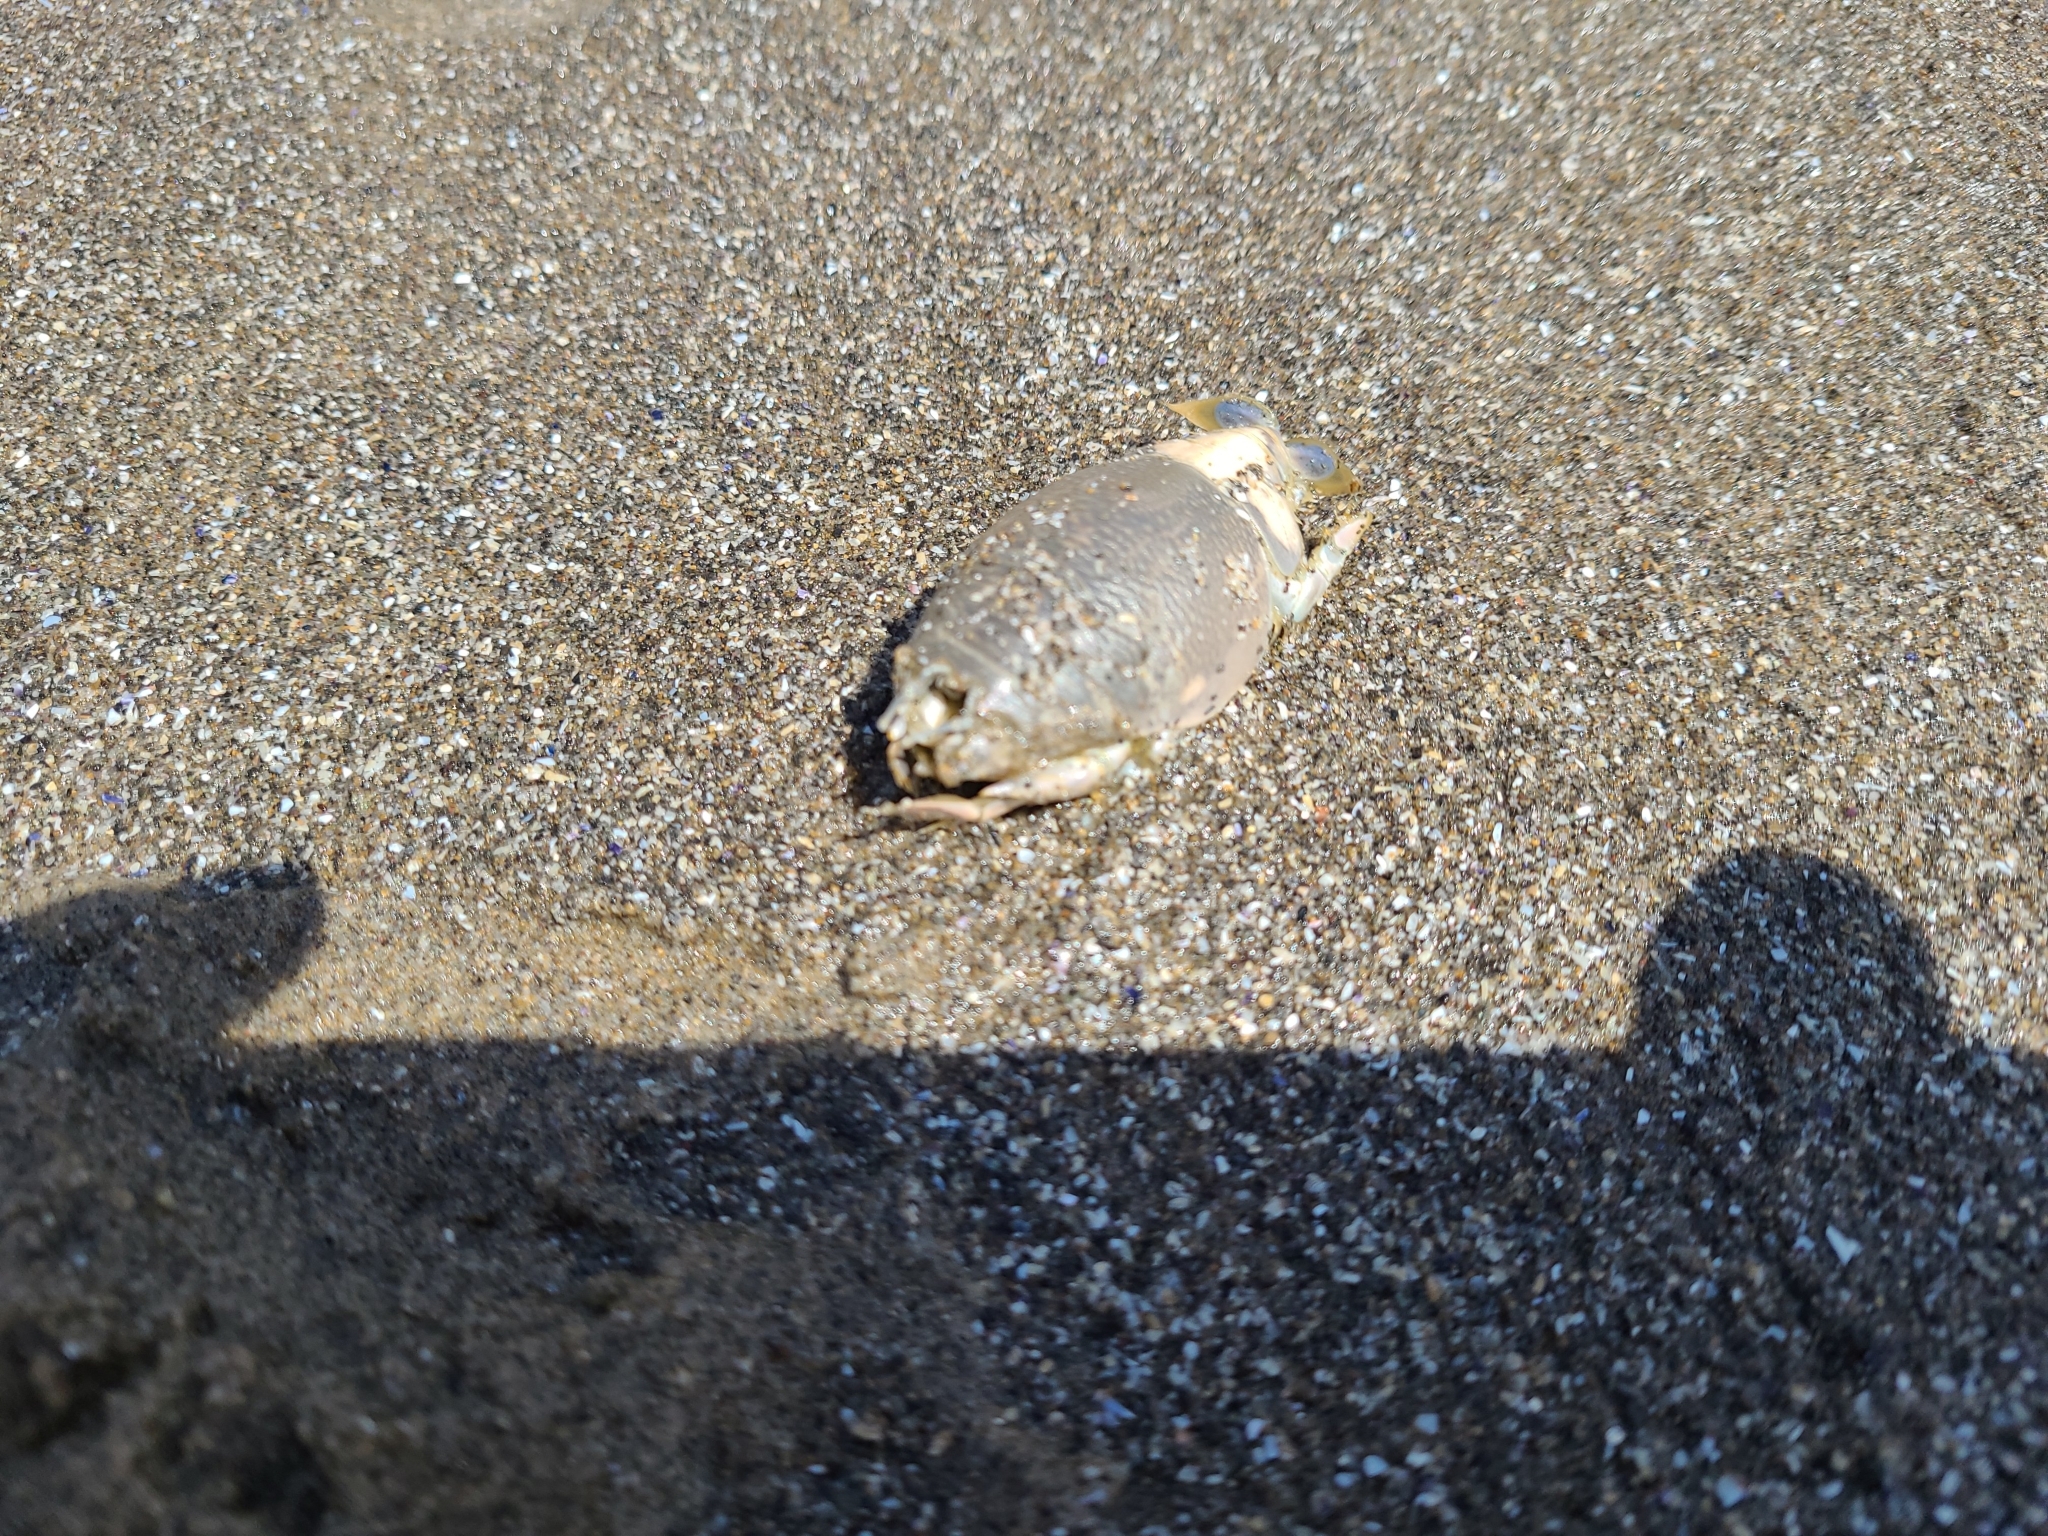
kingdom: Animalia
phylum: Arthropoda
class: Malacostraca
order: Decapoda
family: Hippidae
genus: Emerita
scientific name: Emerita analoga
